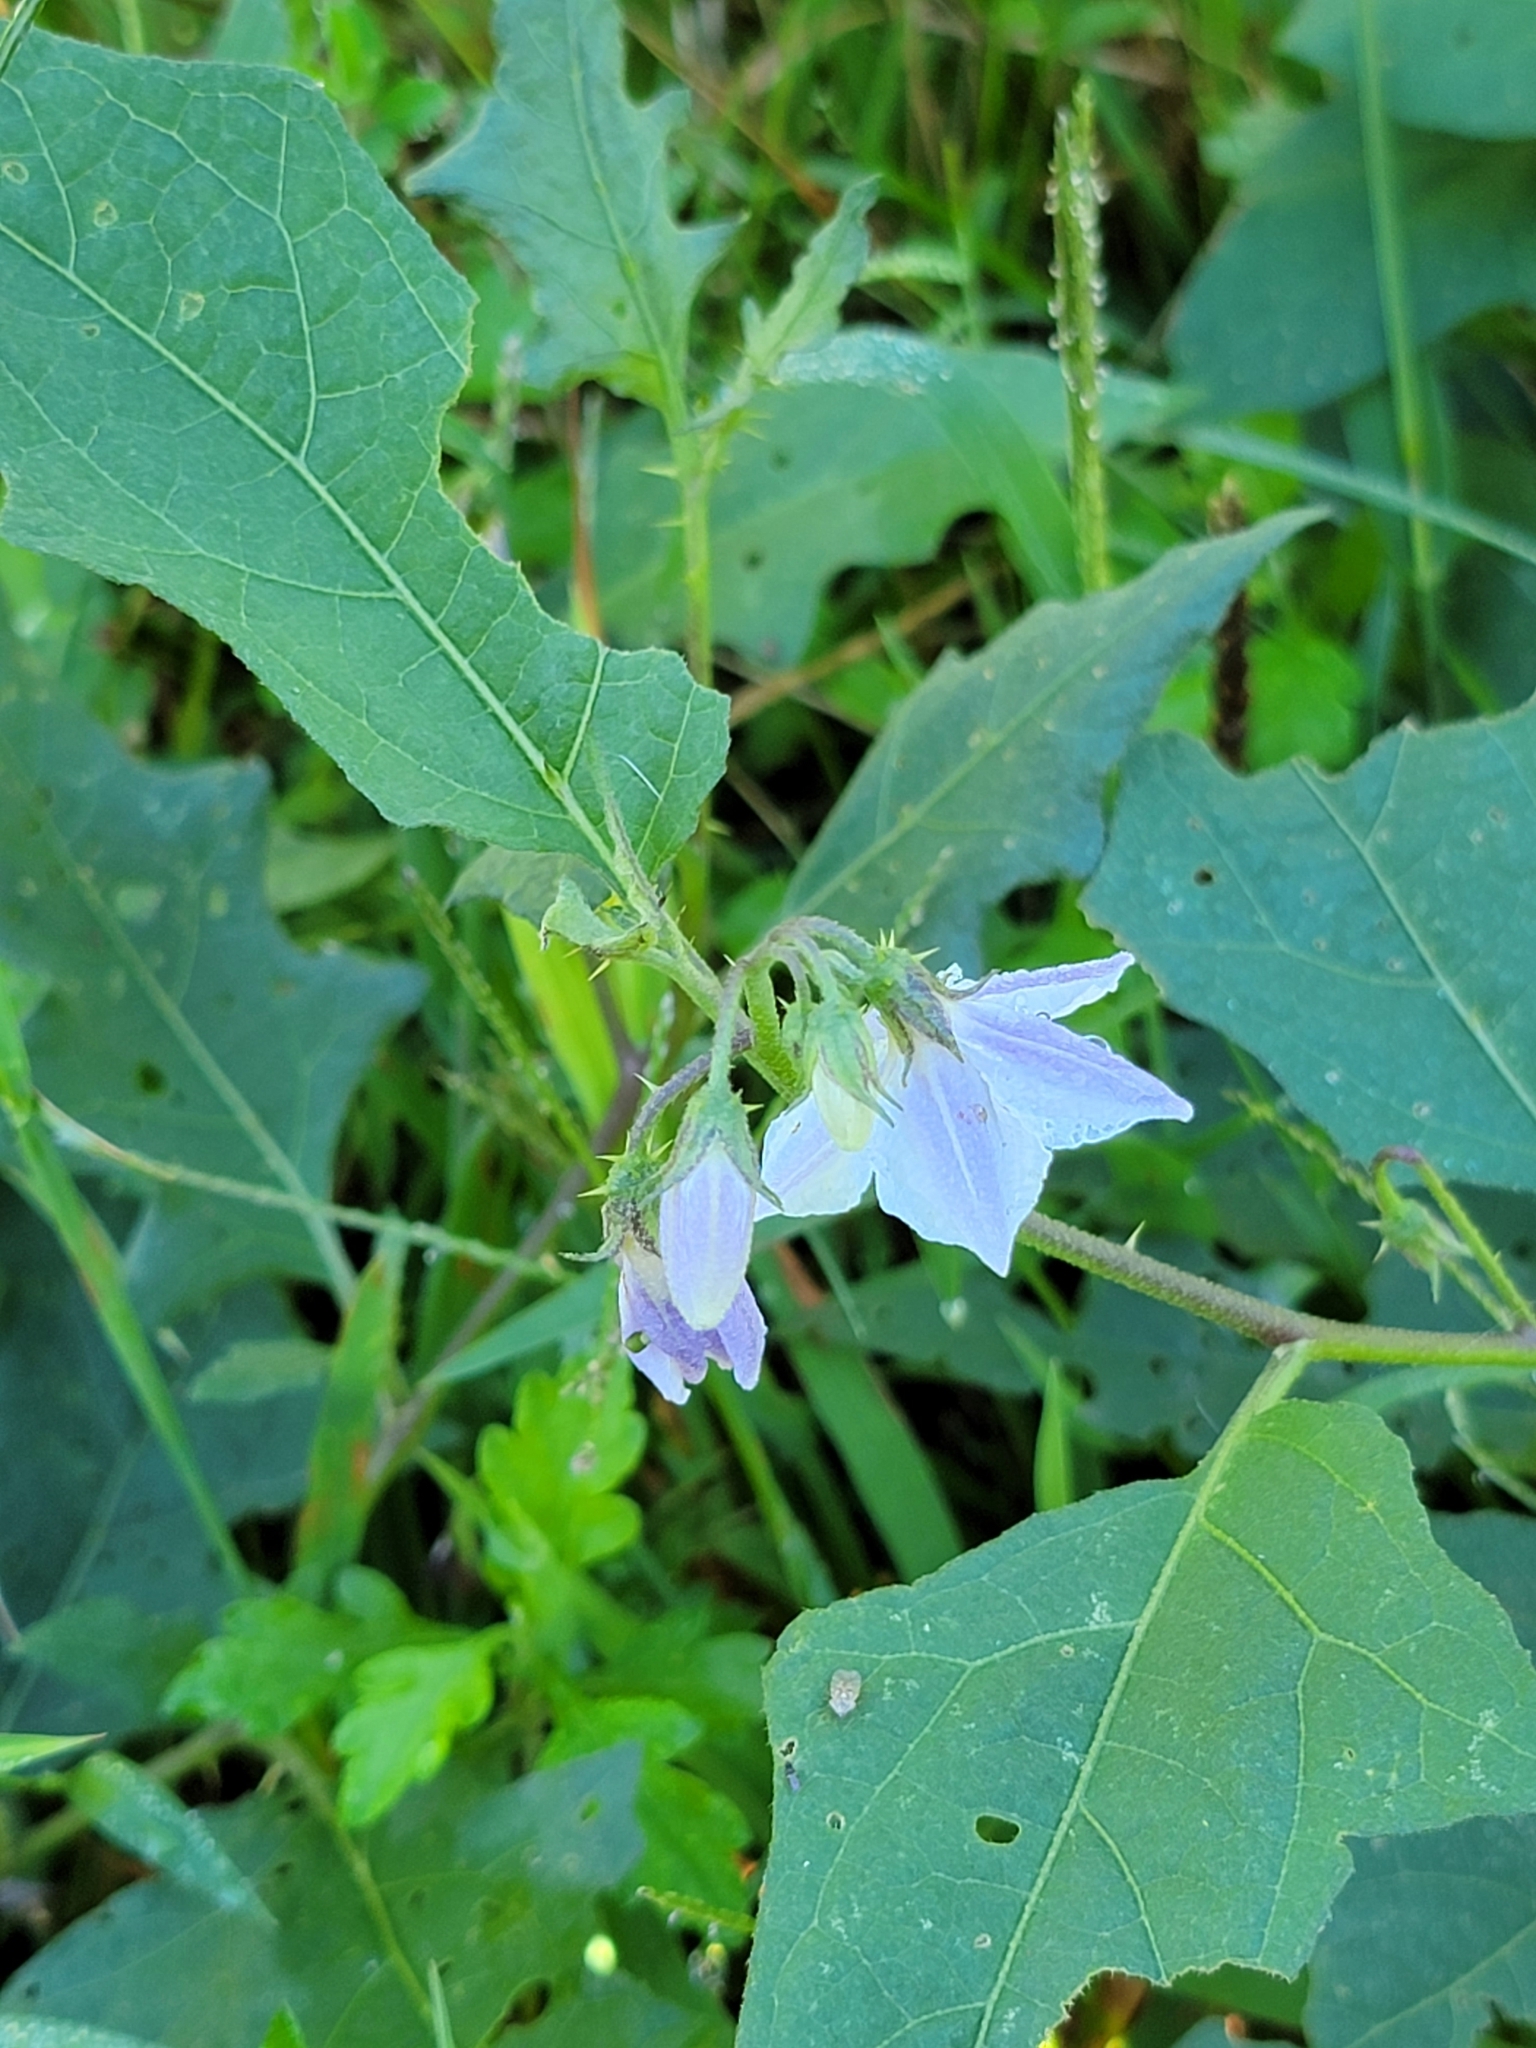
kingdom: Plantae
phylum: Tracheophyta
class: Magnoliopsida
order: Solanales
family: Solanaceae
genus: Solanum
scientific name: Solanum carolinense
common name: Horse-nettle
